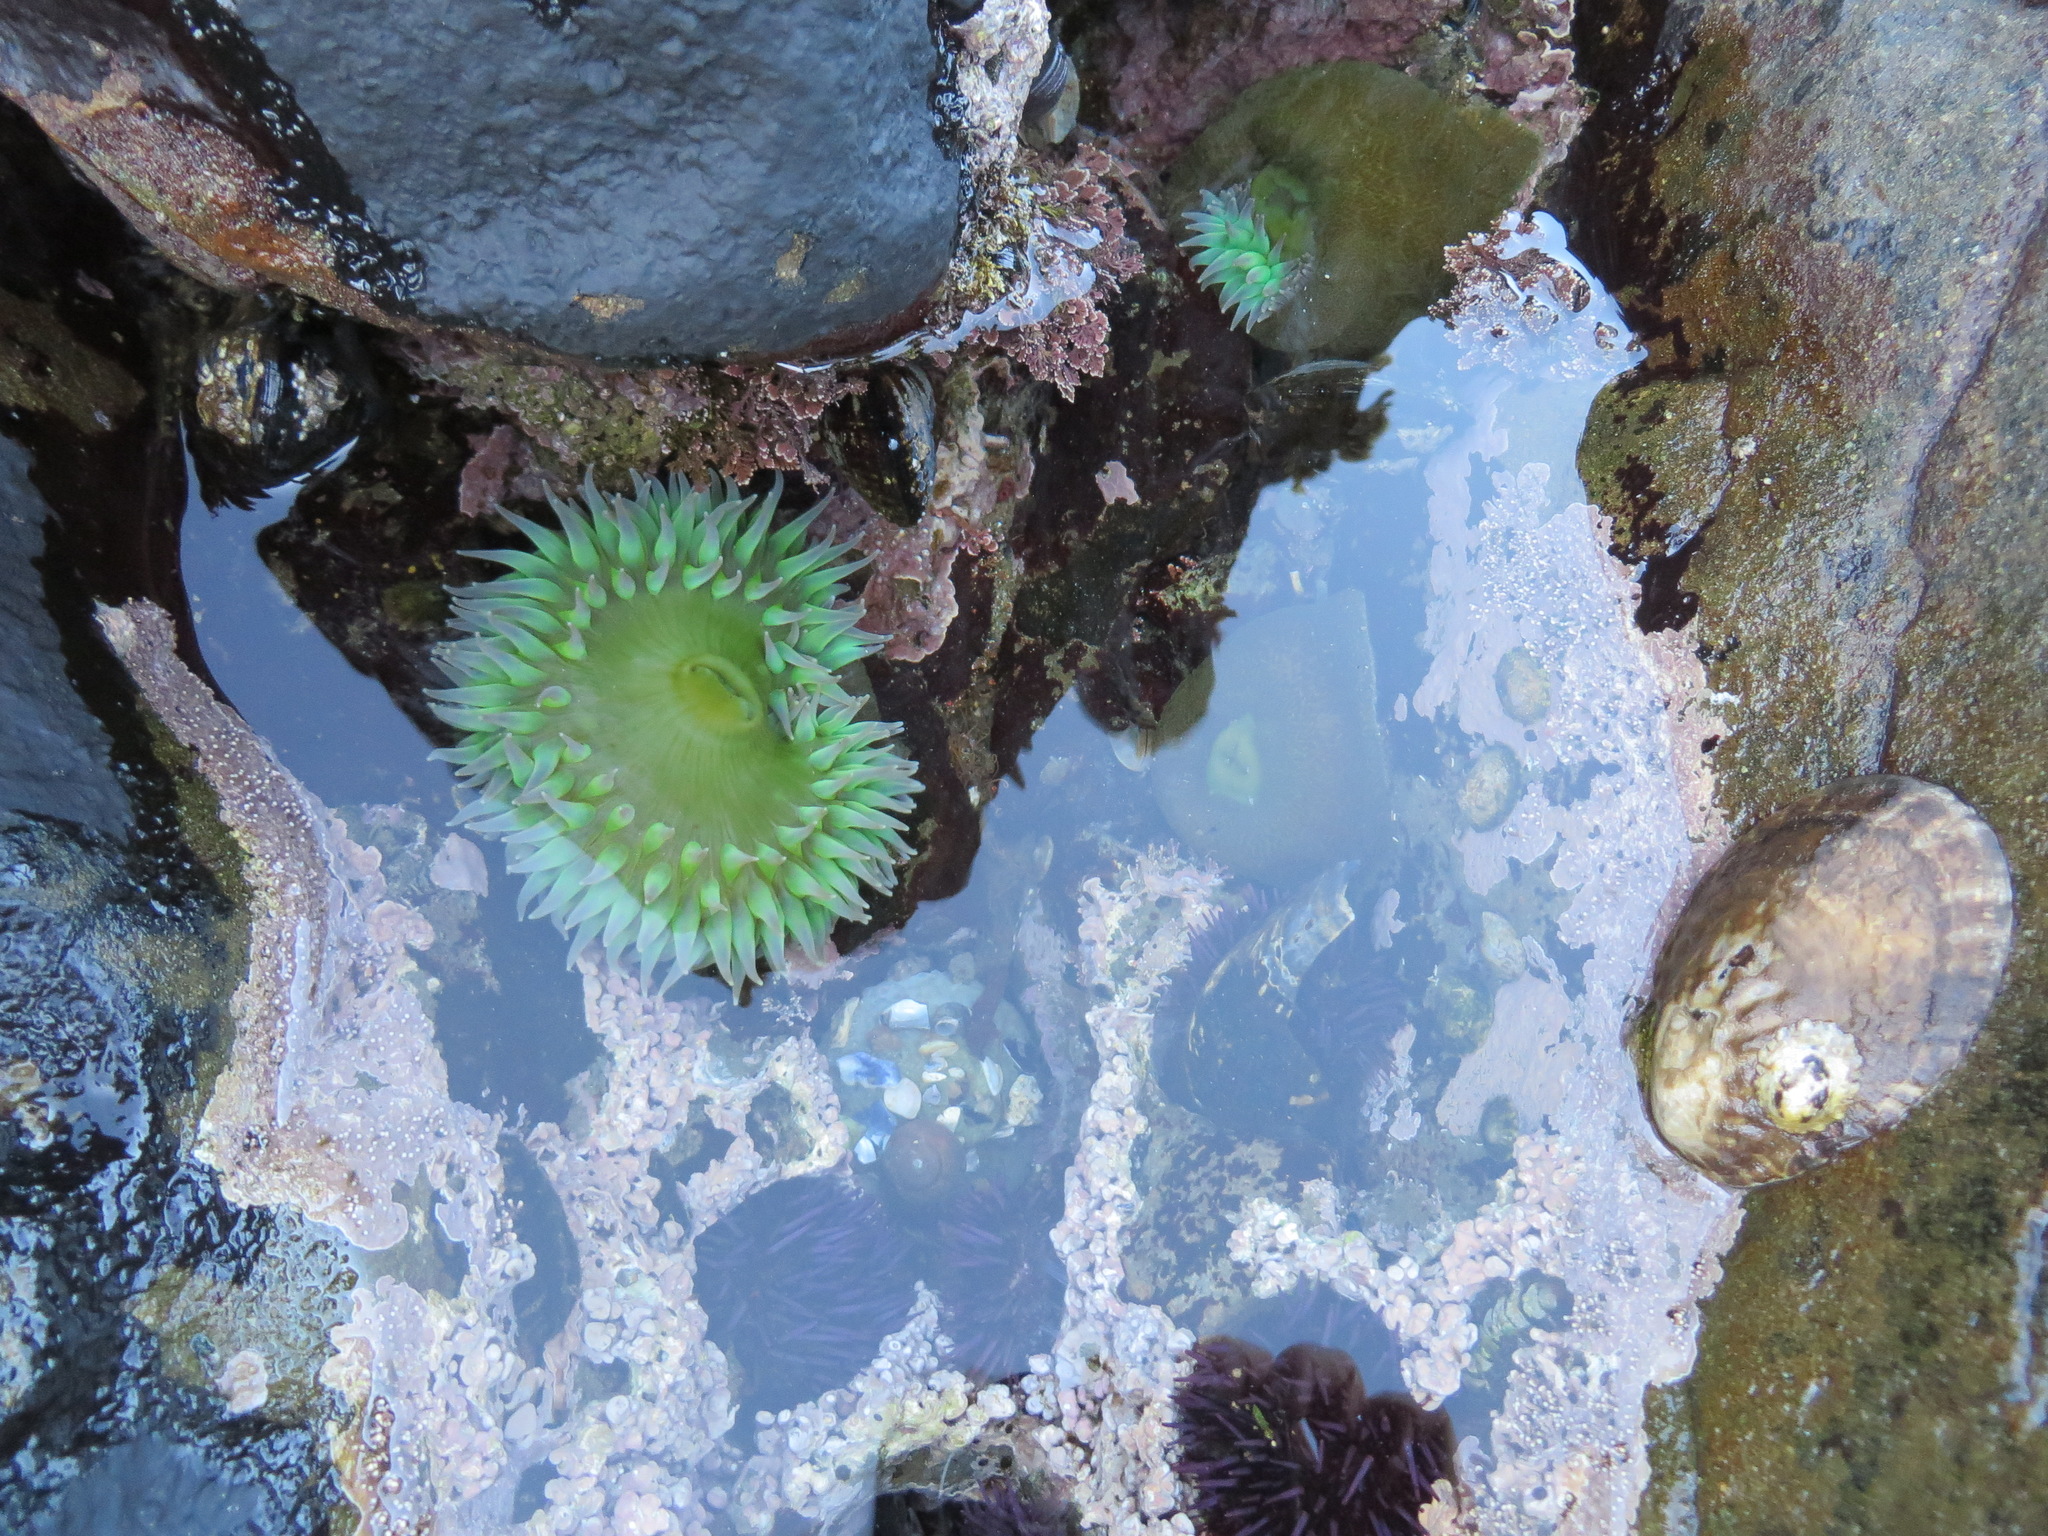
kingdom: Animalia
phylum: Cnidaria
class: Anthozoa
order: Actiniaria
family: Actiniidae
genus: Anthopleura
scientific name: Anthopleura xanthogrammica
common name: Giant green anemone
